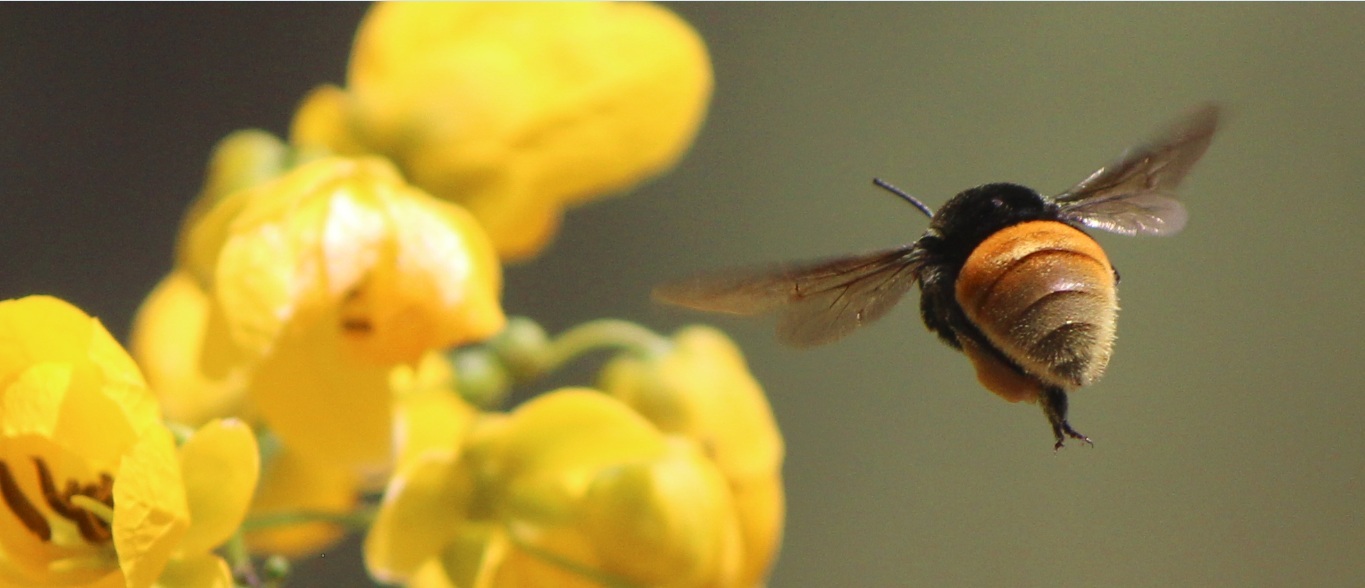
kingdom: Animalia
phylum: Arthropoda
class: Insecta
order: Hymenoptera
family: Apidae
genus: Eulaema
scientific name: Eulaema polychroma
